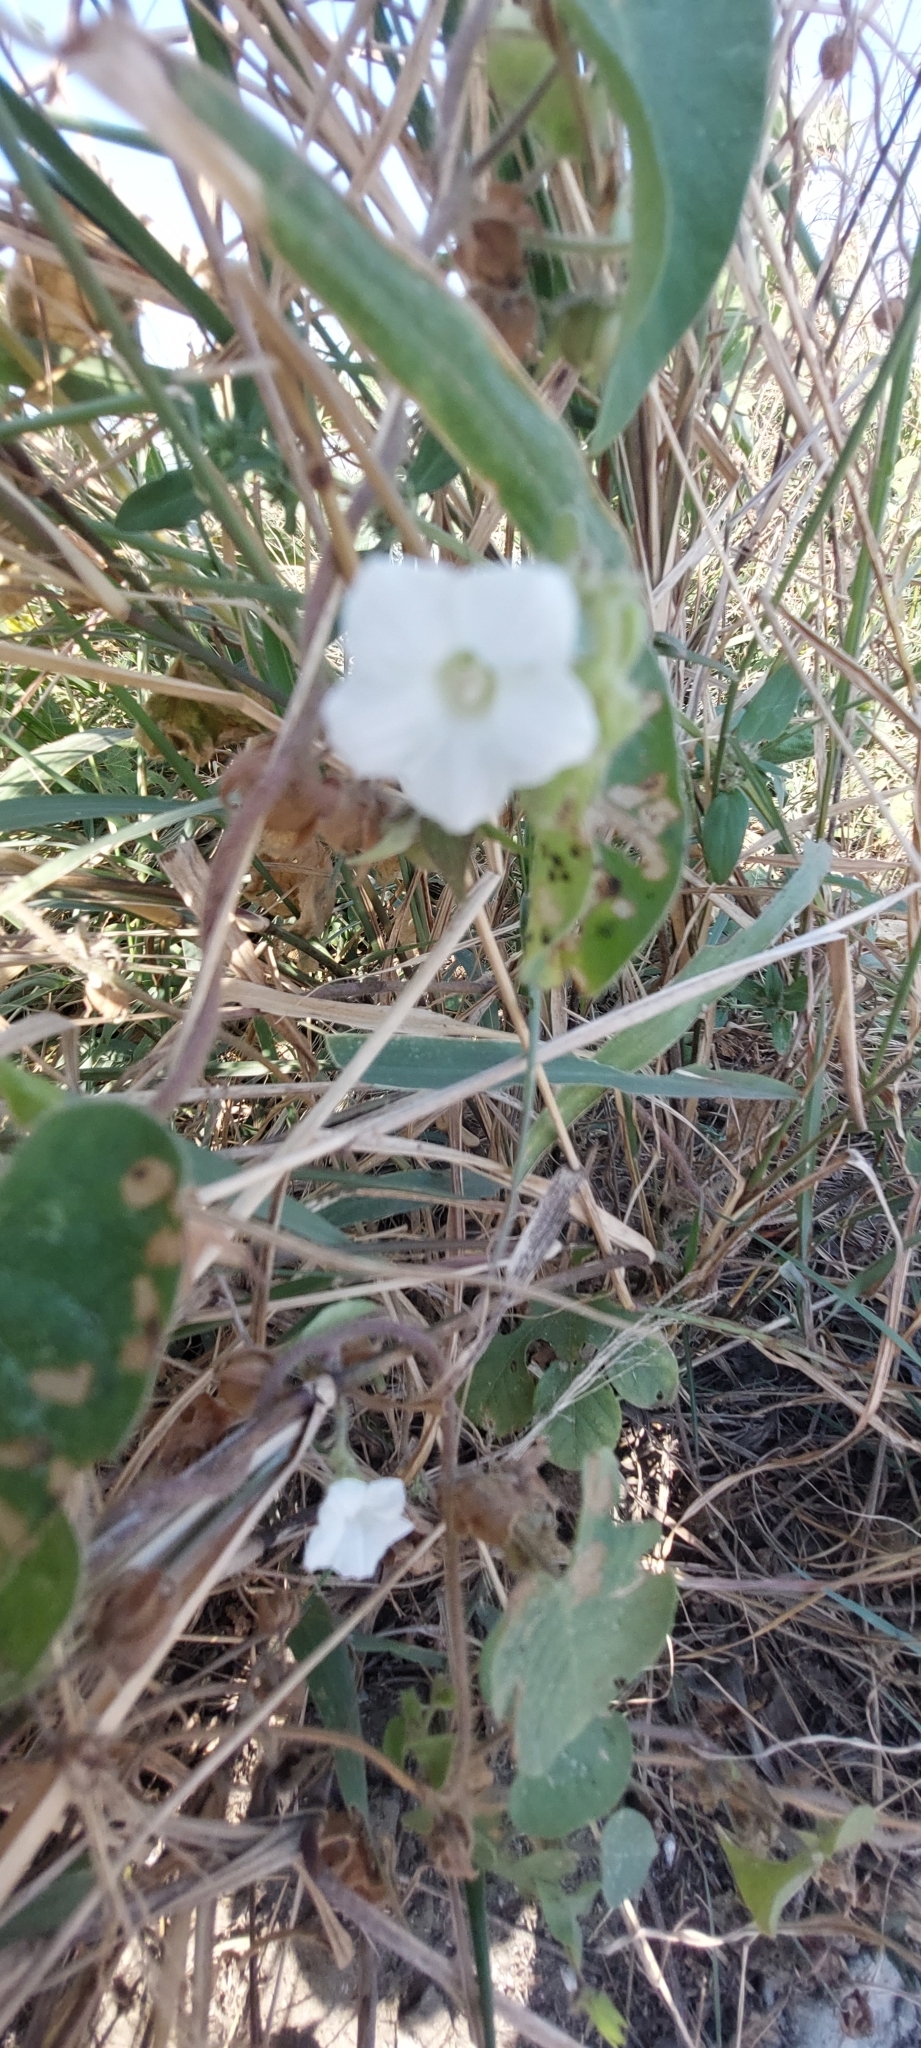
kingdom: Plantae
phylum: Tracheophyta
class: Magnoliopsida
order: Solanales
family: Convolvulaceae
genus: Ipomoea
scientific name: Ipomoea biflora
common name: Bellvine
